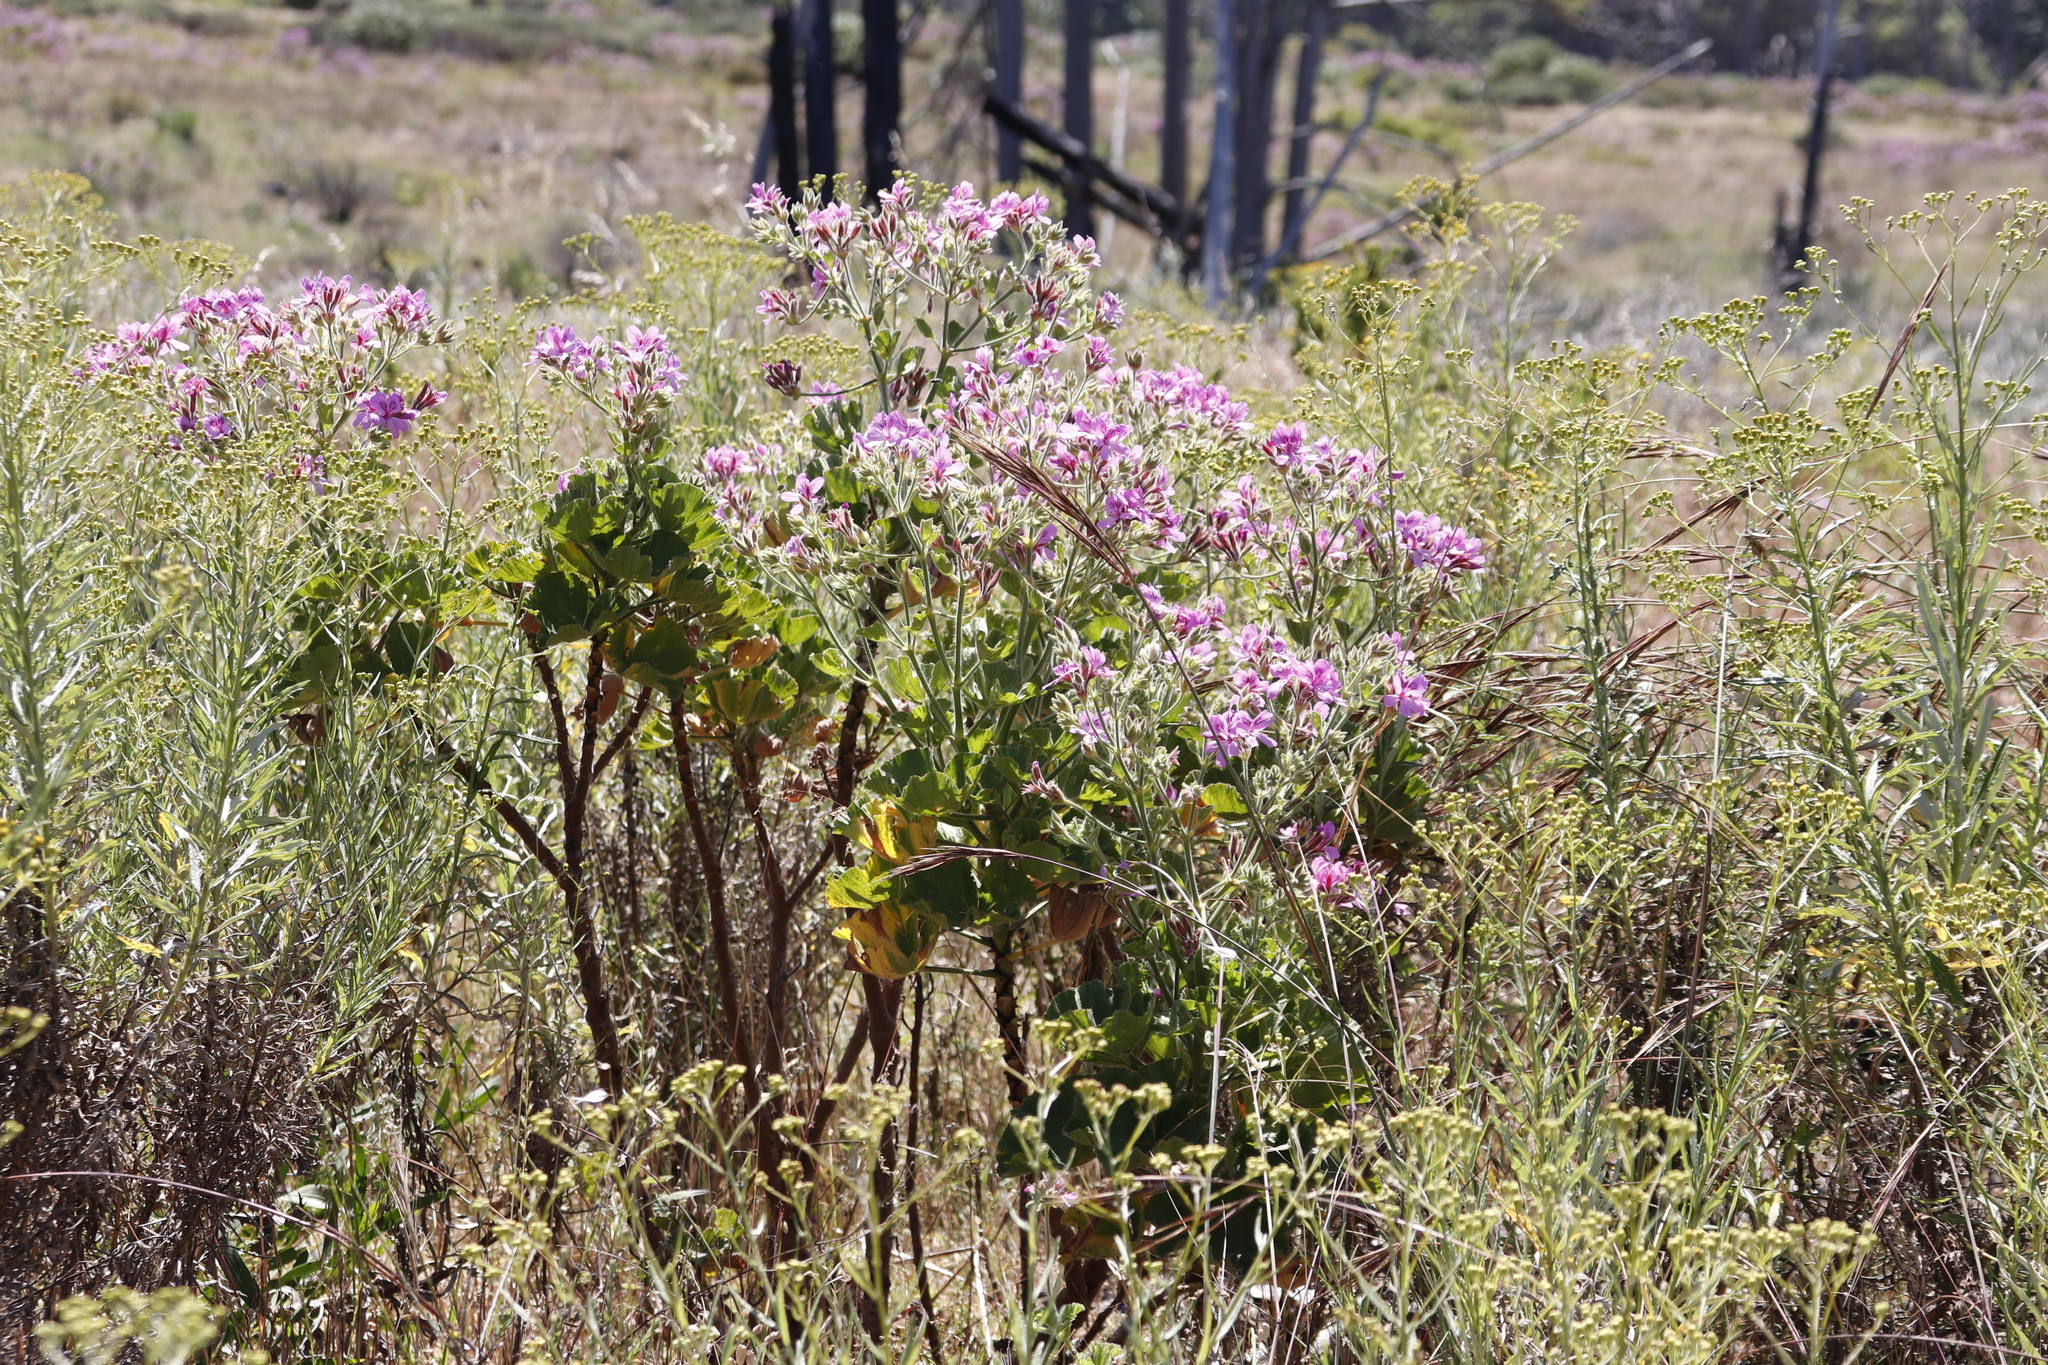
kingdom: Plantae
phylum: Tracheophyta
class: Magnoliopsida
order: Geraniales
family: Geraniaceae
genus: Pelargonium
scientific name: Pelargonium cucullatum
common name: Tree pelargonium
